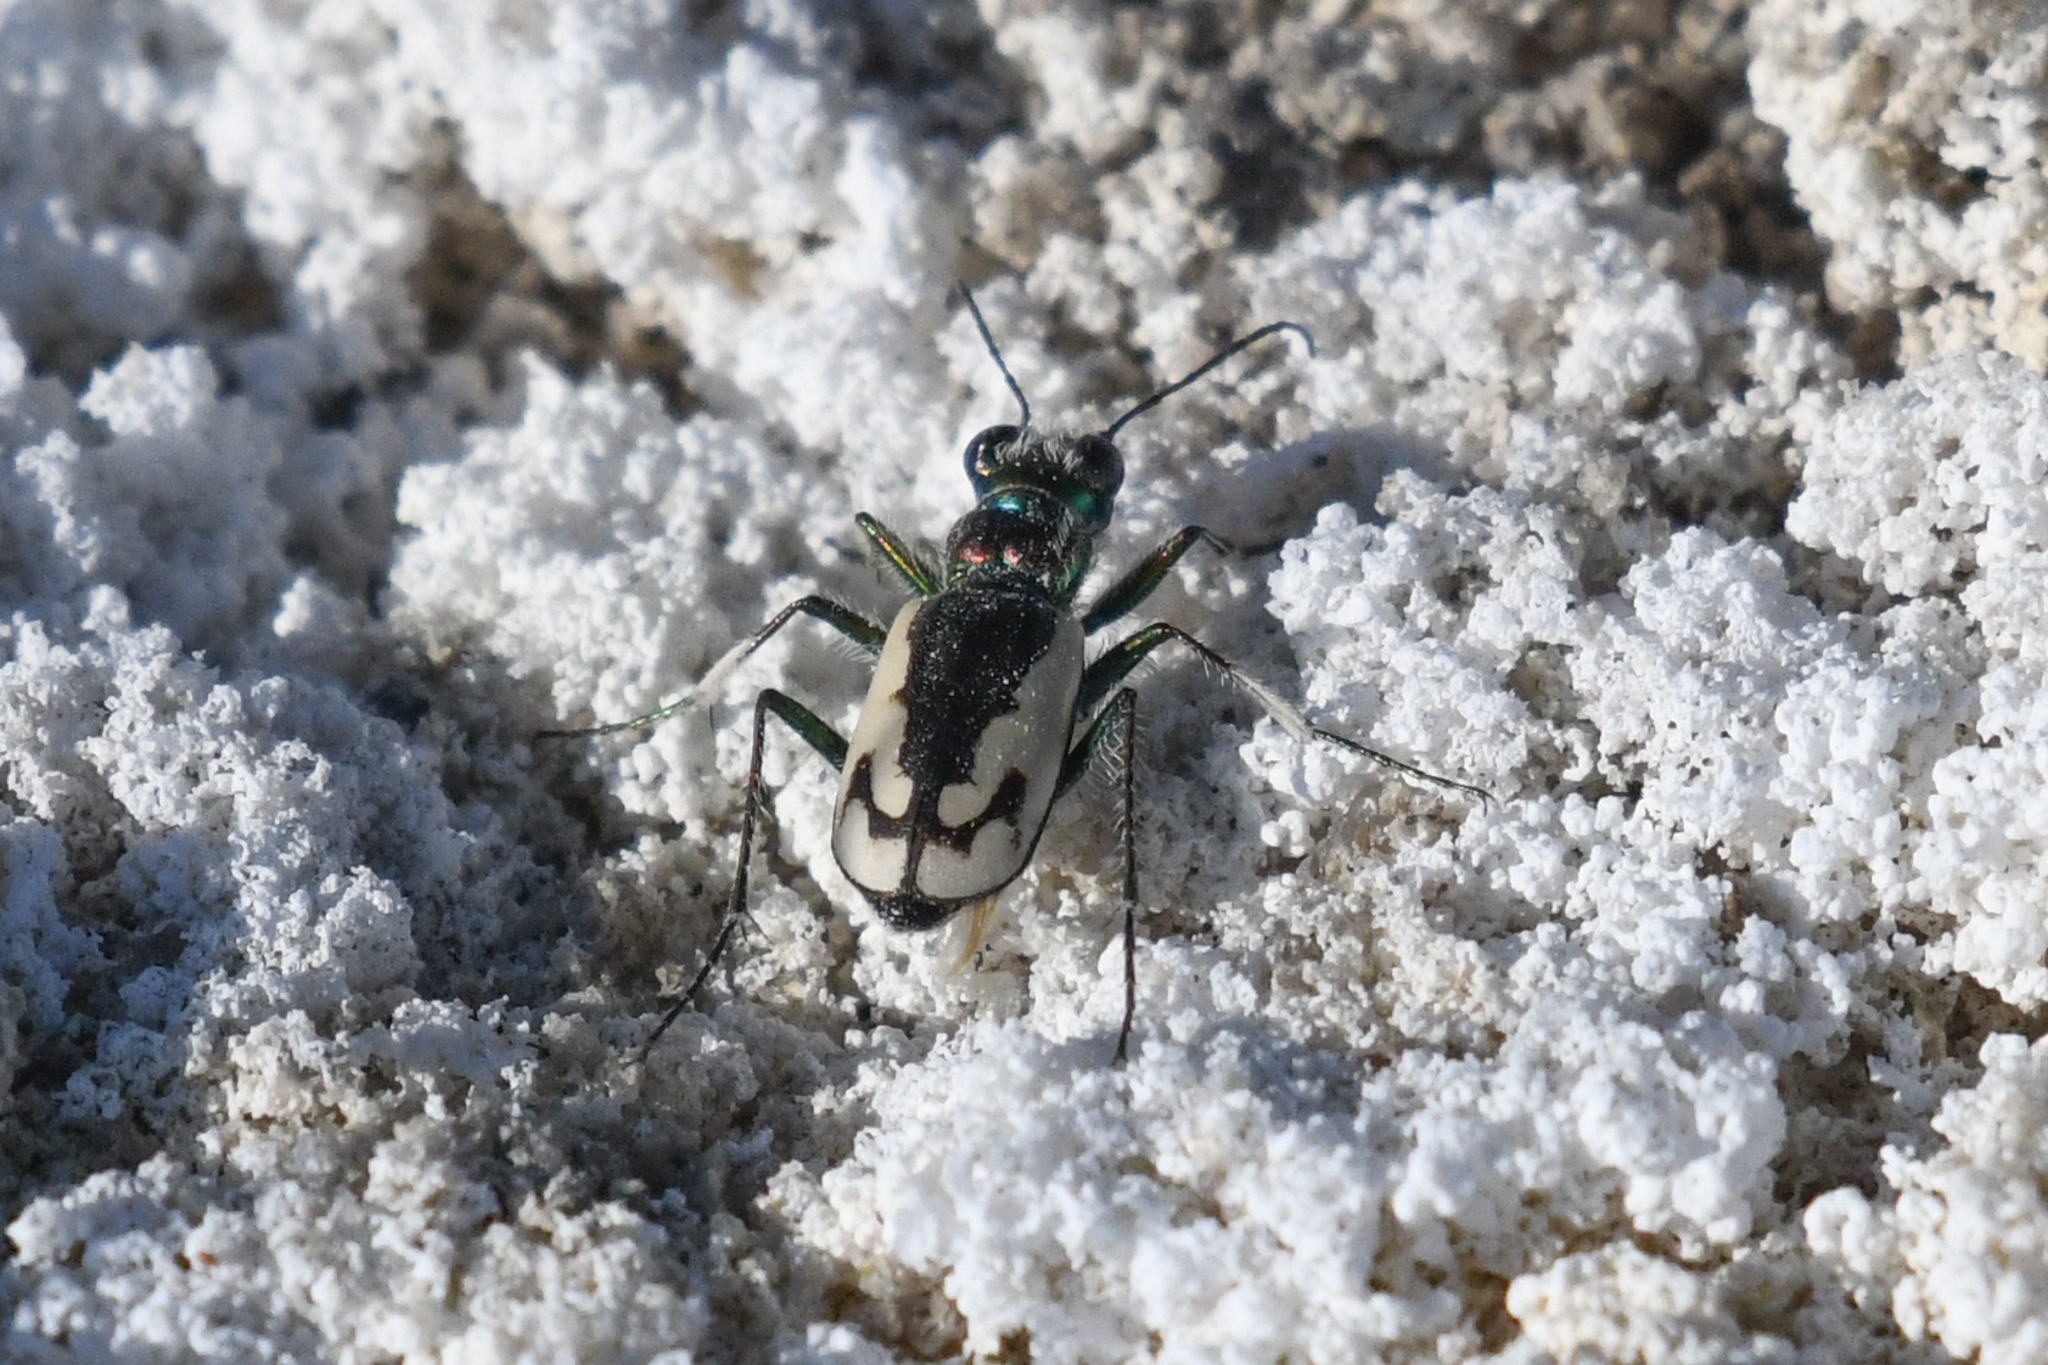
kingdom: Animalia
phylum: Arthropoda
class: Insecta
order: Coleoptera
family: Carabidae
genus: Cicindela
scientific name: Cicindela parowana
